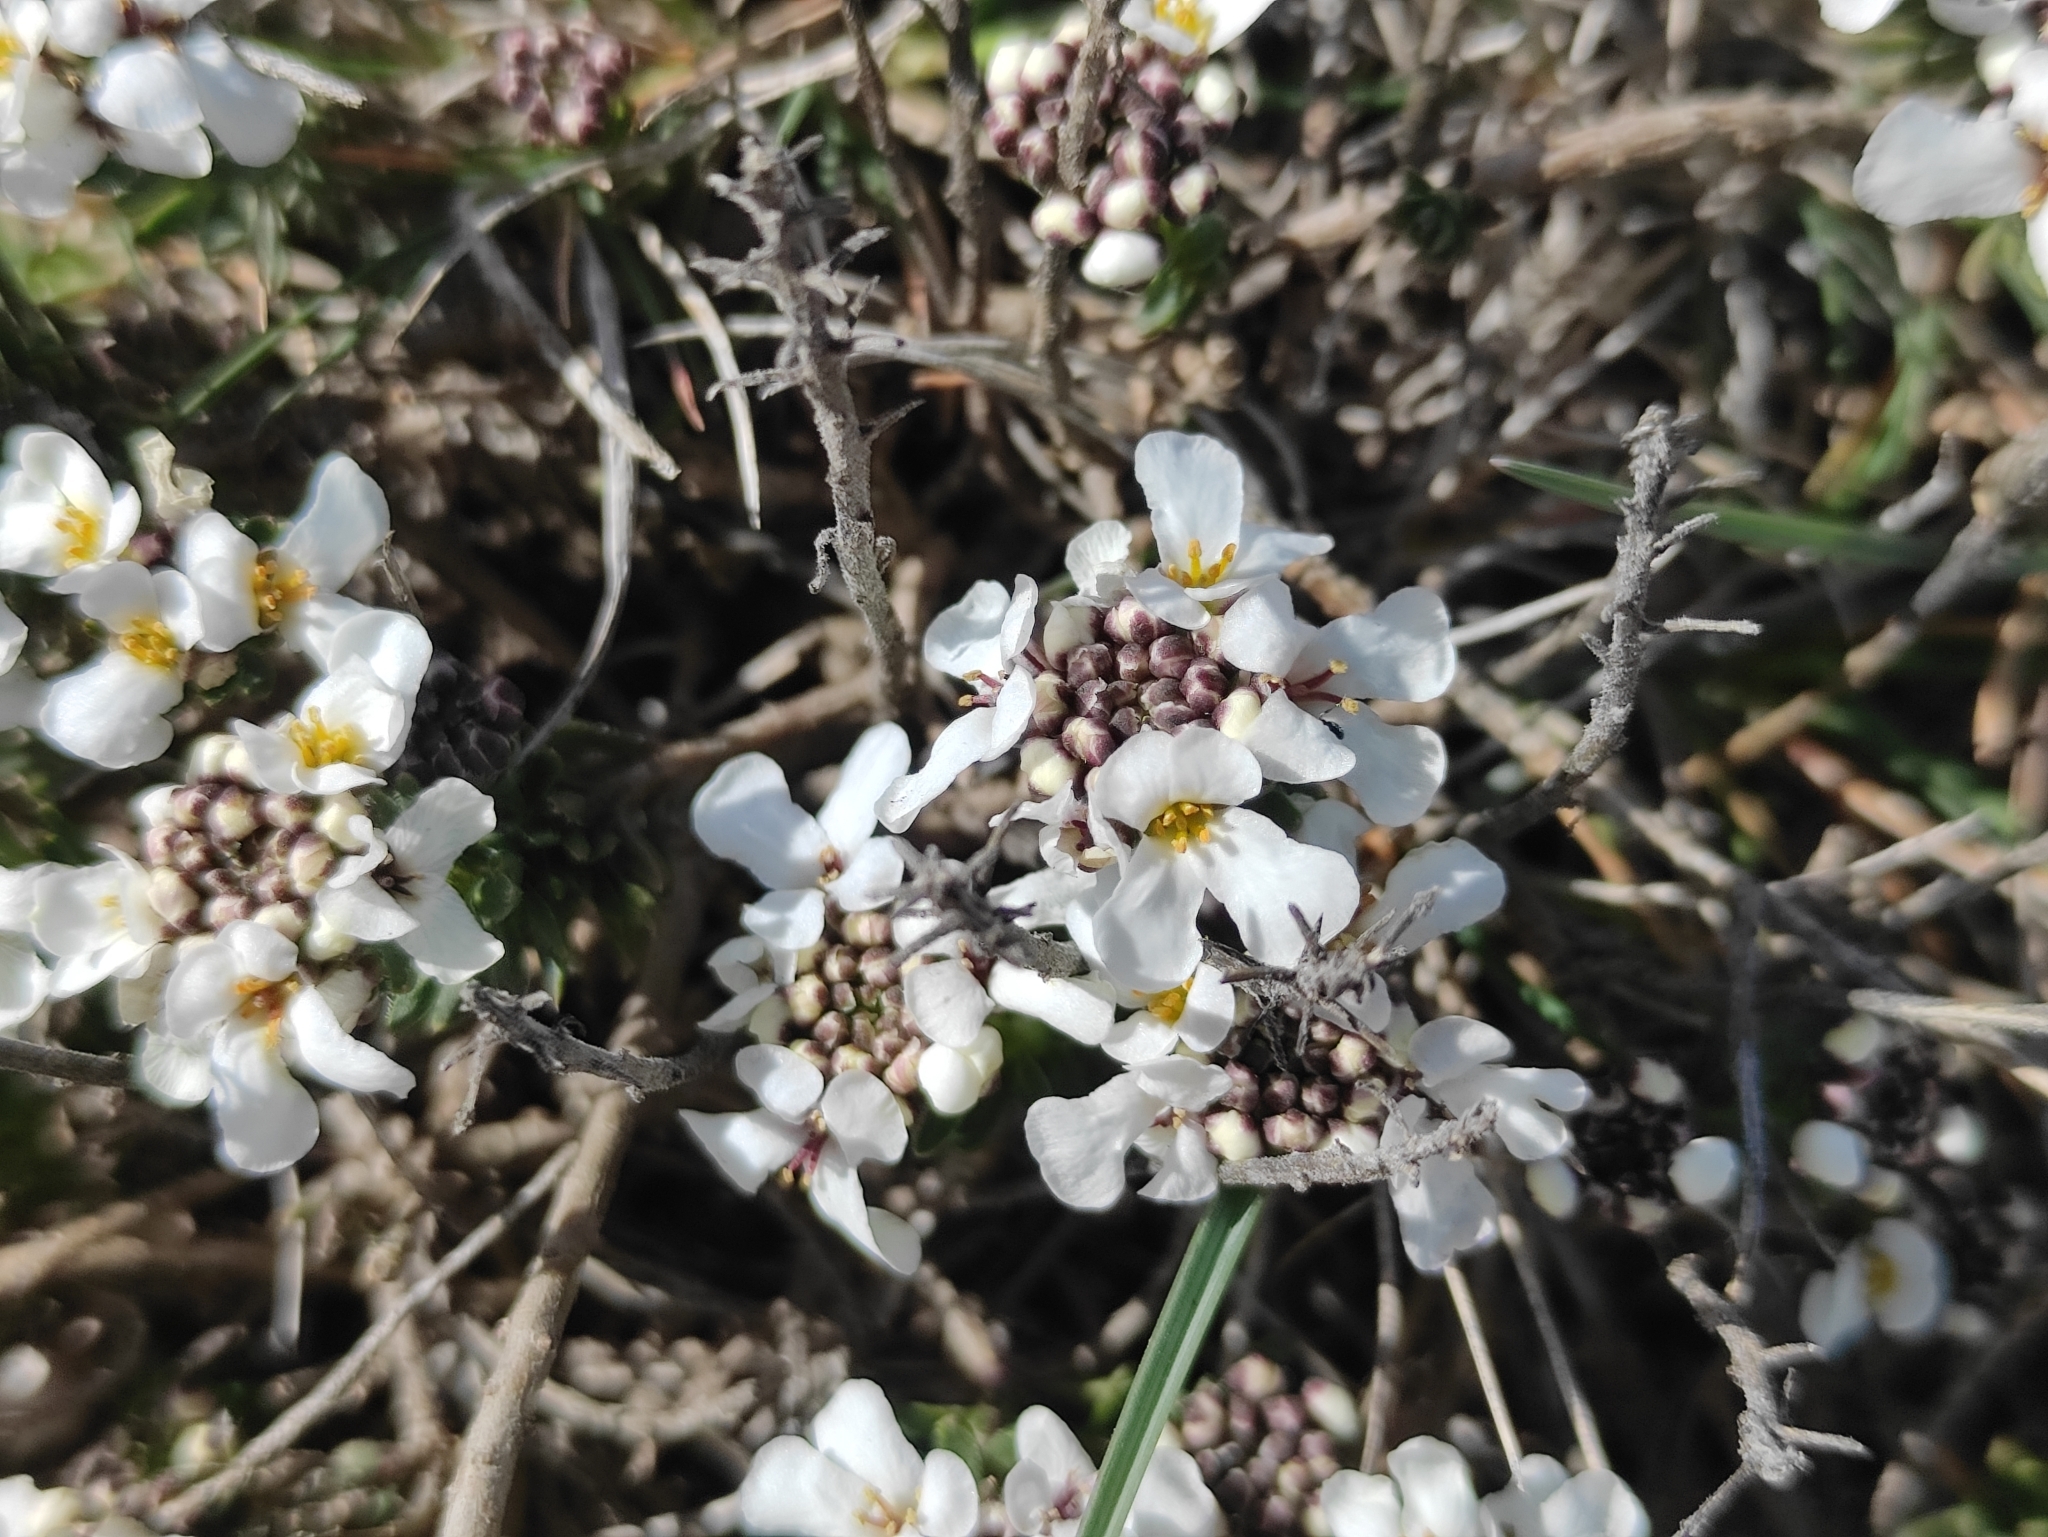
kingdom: Plantae
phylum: Tracheophyta
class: Magnoliopsida
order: Brassicales
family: Brassicaceae
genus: Iberis
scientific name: Iberis saxatilis
